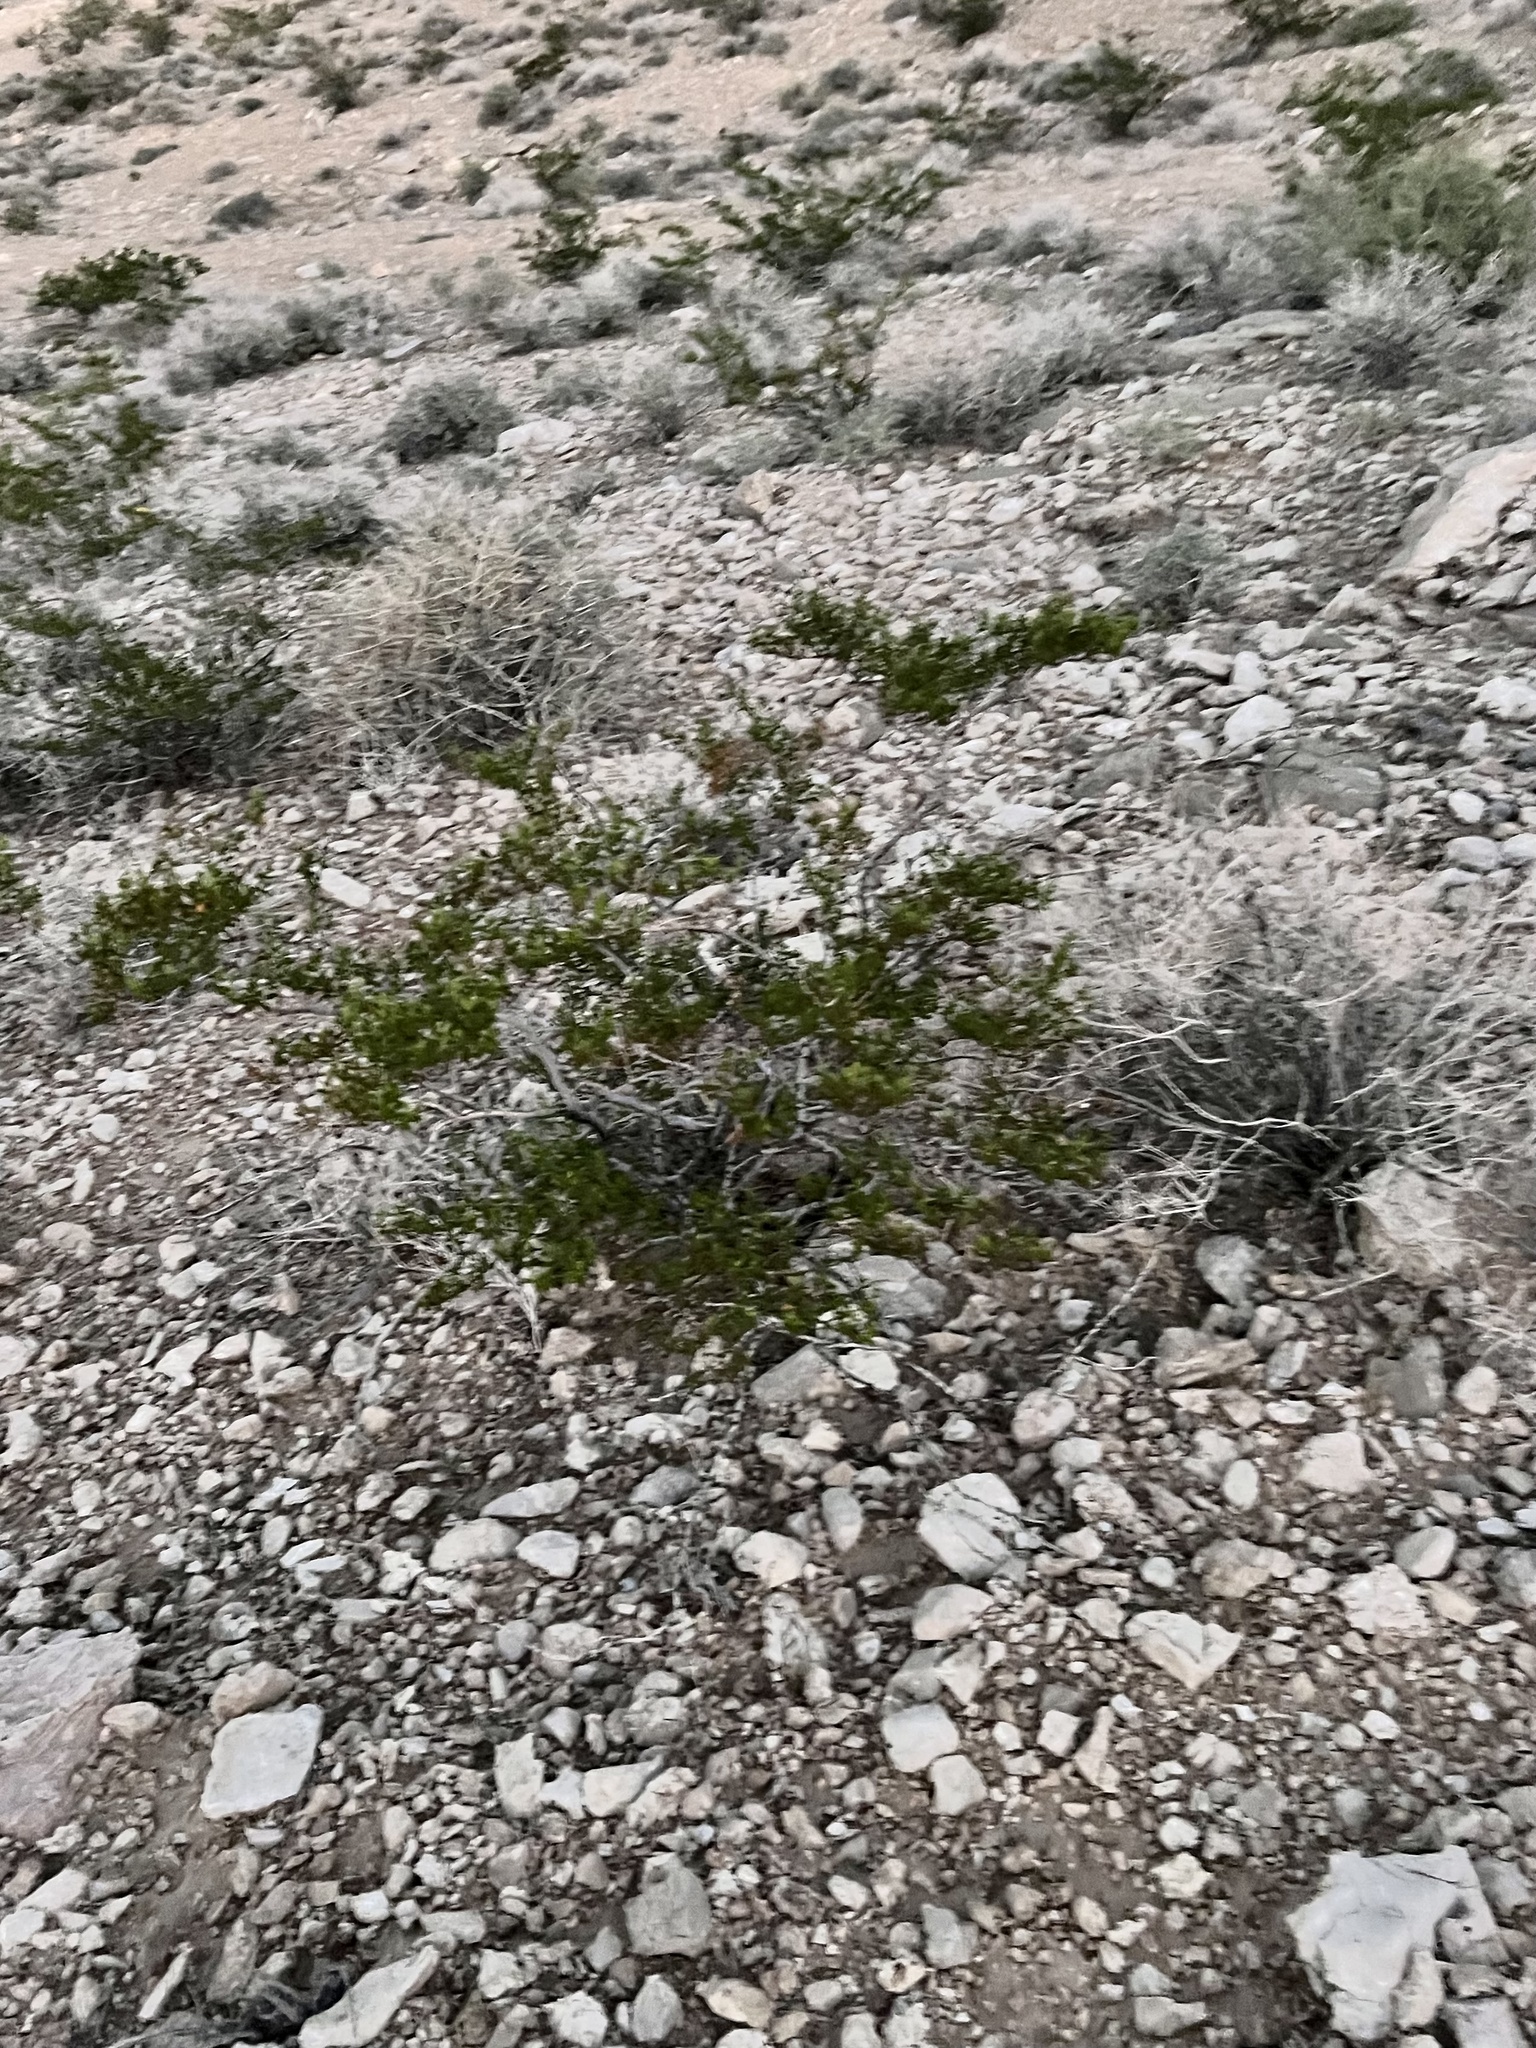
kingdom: Plantae
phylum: Tracheophyta
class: Magnoliopsida
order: Zygophyllales
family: Zygophyllaceae
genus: Larrea
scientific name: Larrea tridentata
